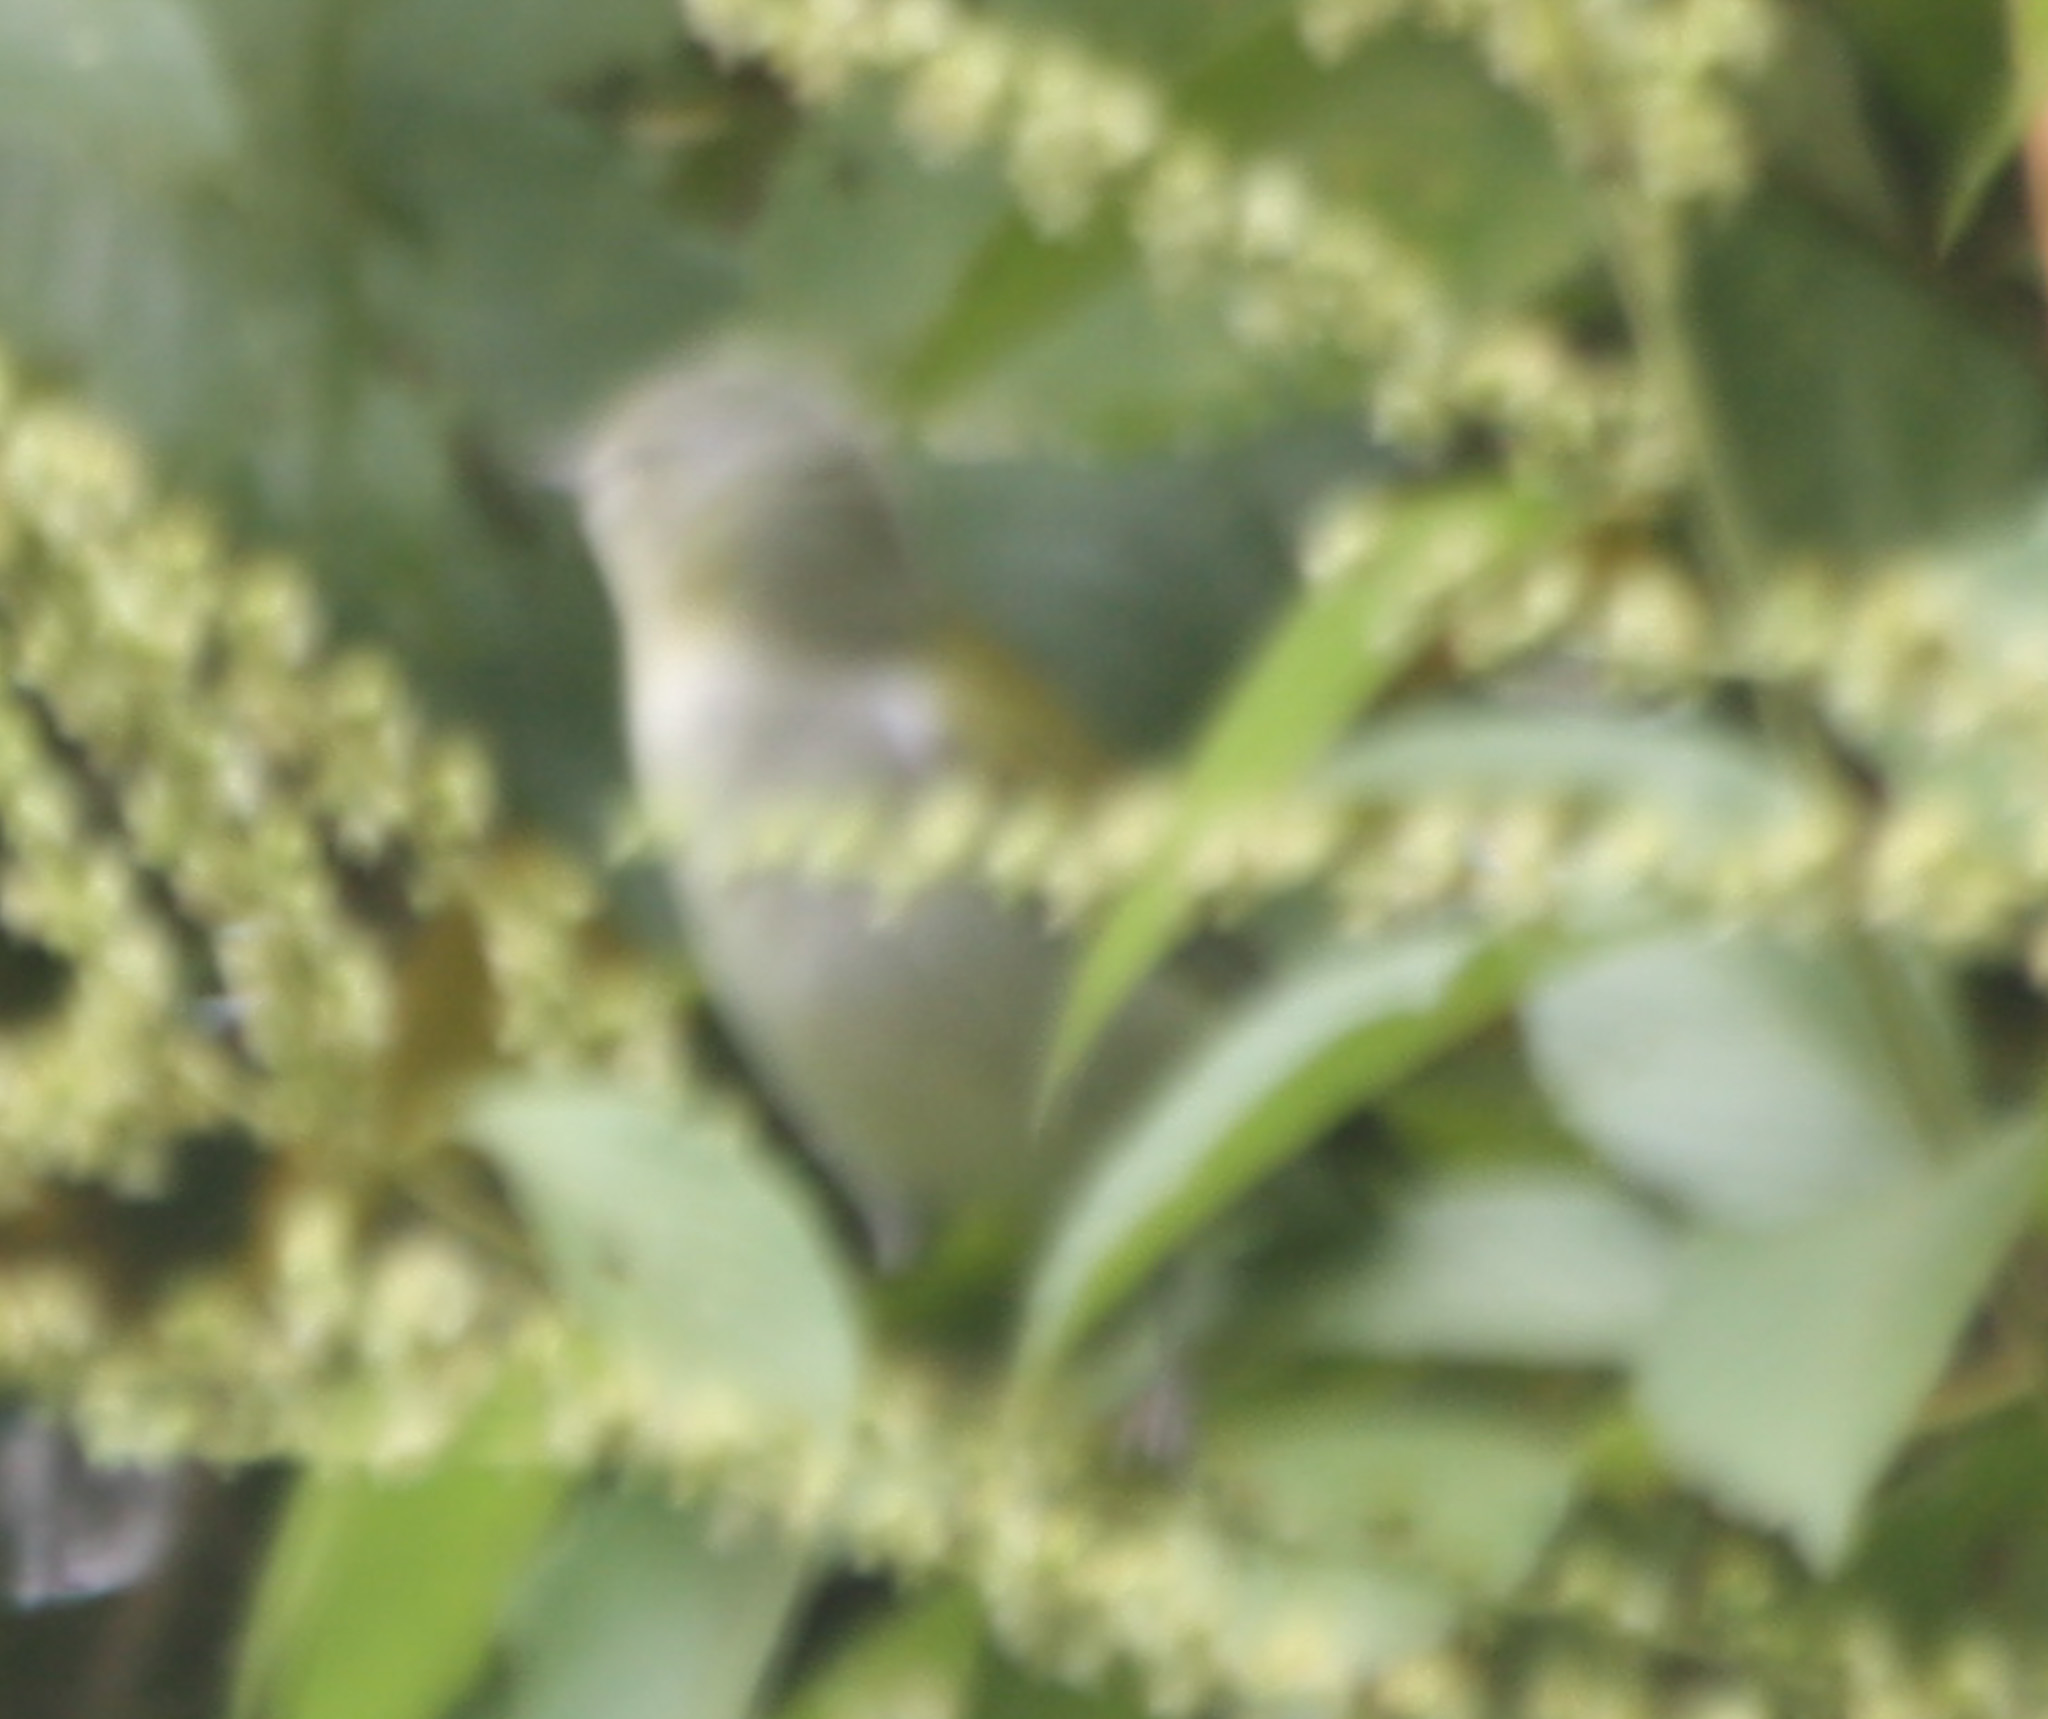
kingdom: Animalia
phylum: Chordata
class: Aves
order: Passeriformes
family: Parulidae
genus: Leiothlypis
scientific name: Leiothlypis peregrina
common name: Tennessee warbler
